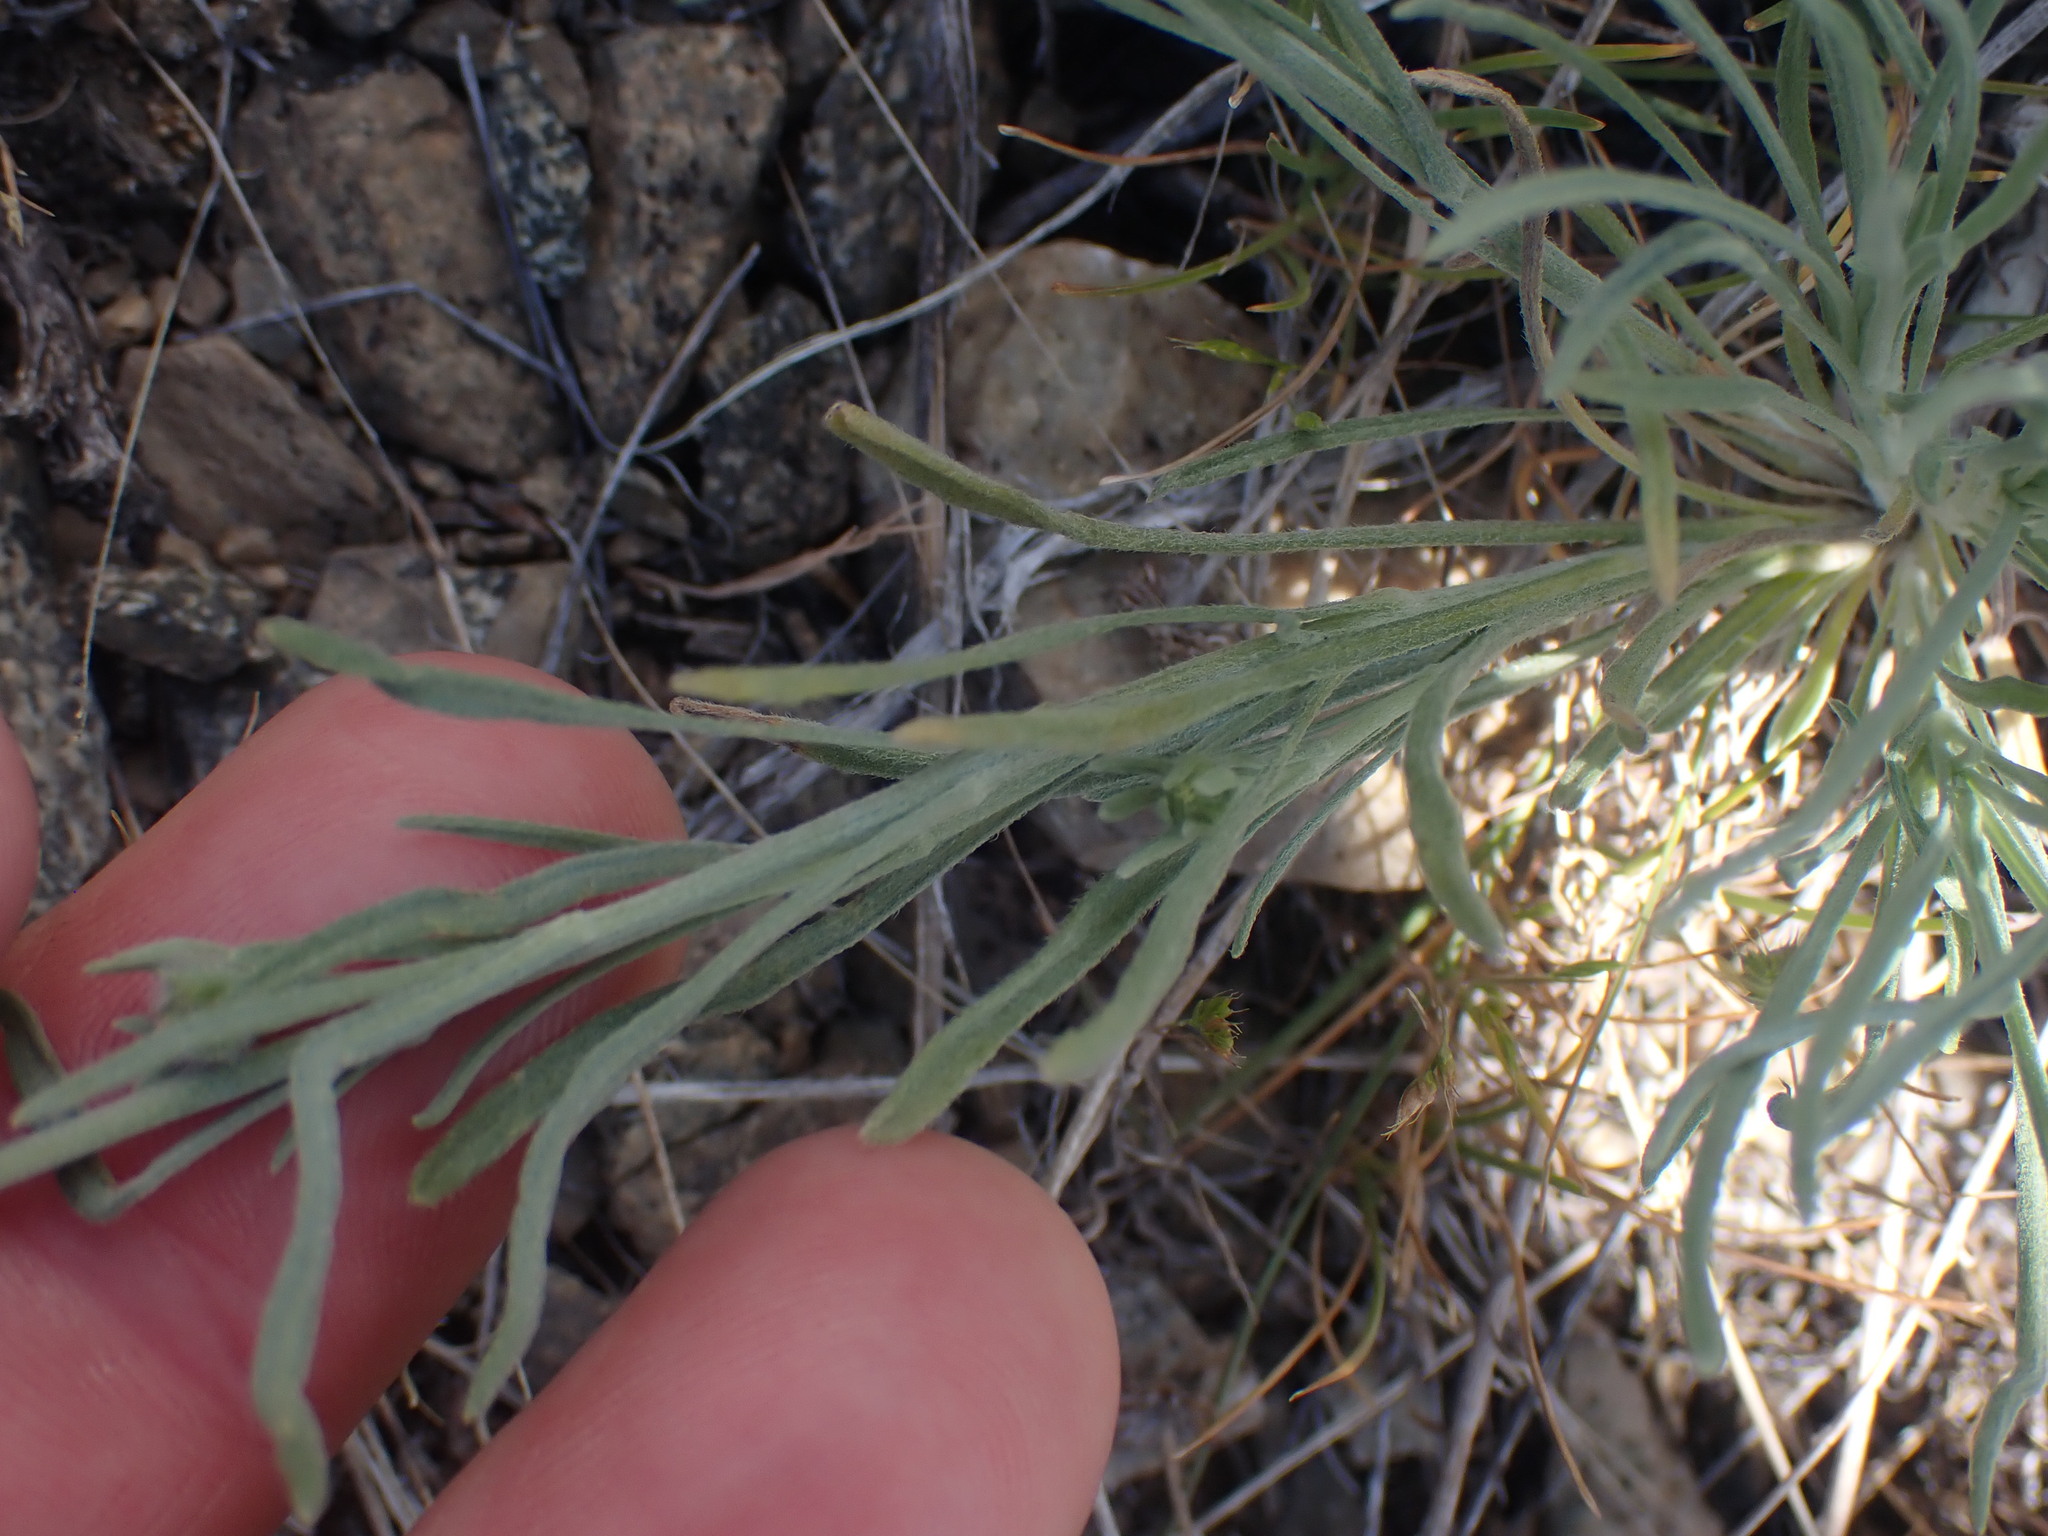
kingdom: Plantae
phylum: Tracheophyta
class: Magnoliopsida
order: Asterales
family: Asteraceae
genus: Erigeron
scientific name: Erigeron filifolius
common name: Threadleaf fleabane
